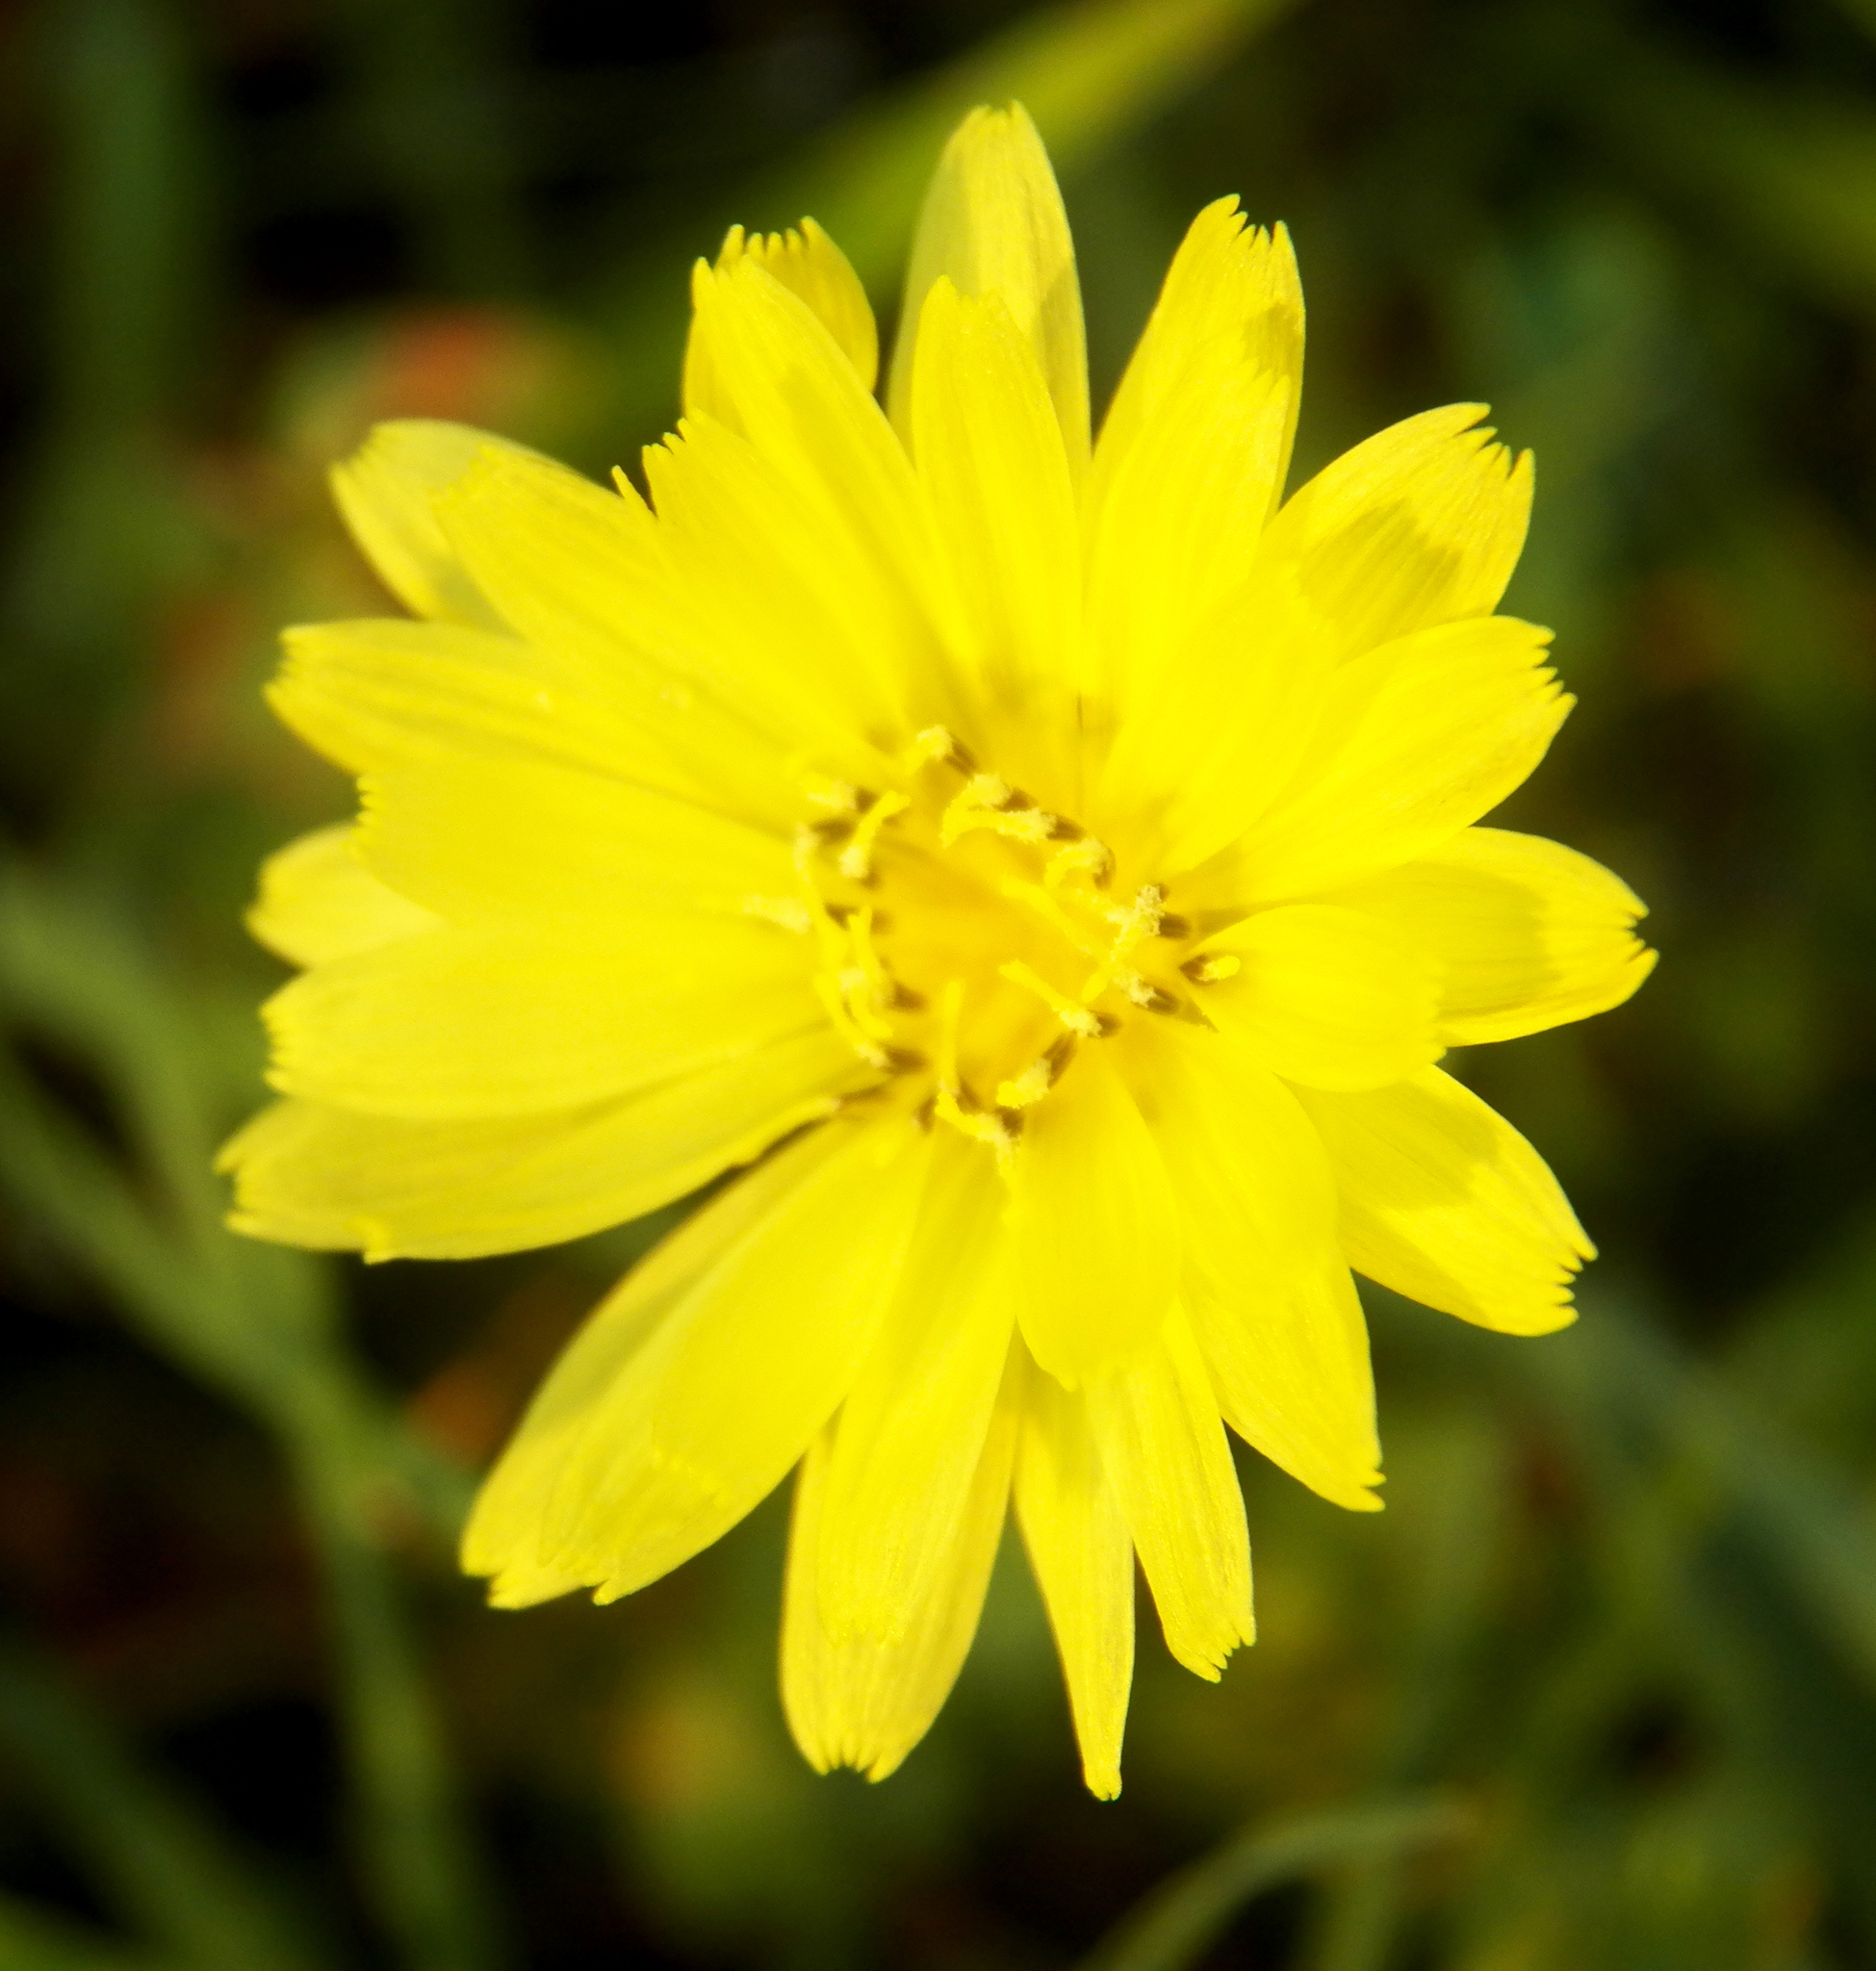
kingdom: Plantae
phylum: Tracheophyta
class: Magnoliopsida
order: Asterales
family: Asteraceae
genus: Pyrrhopappus
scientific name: Pyrrhopappus pauciflorus
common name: Texas false dandelion
